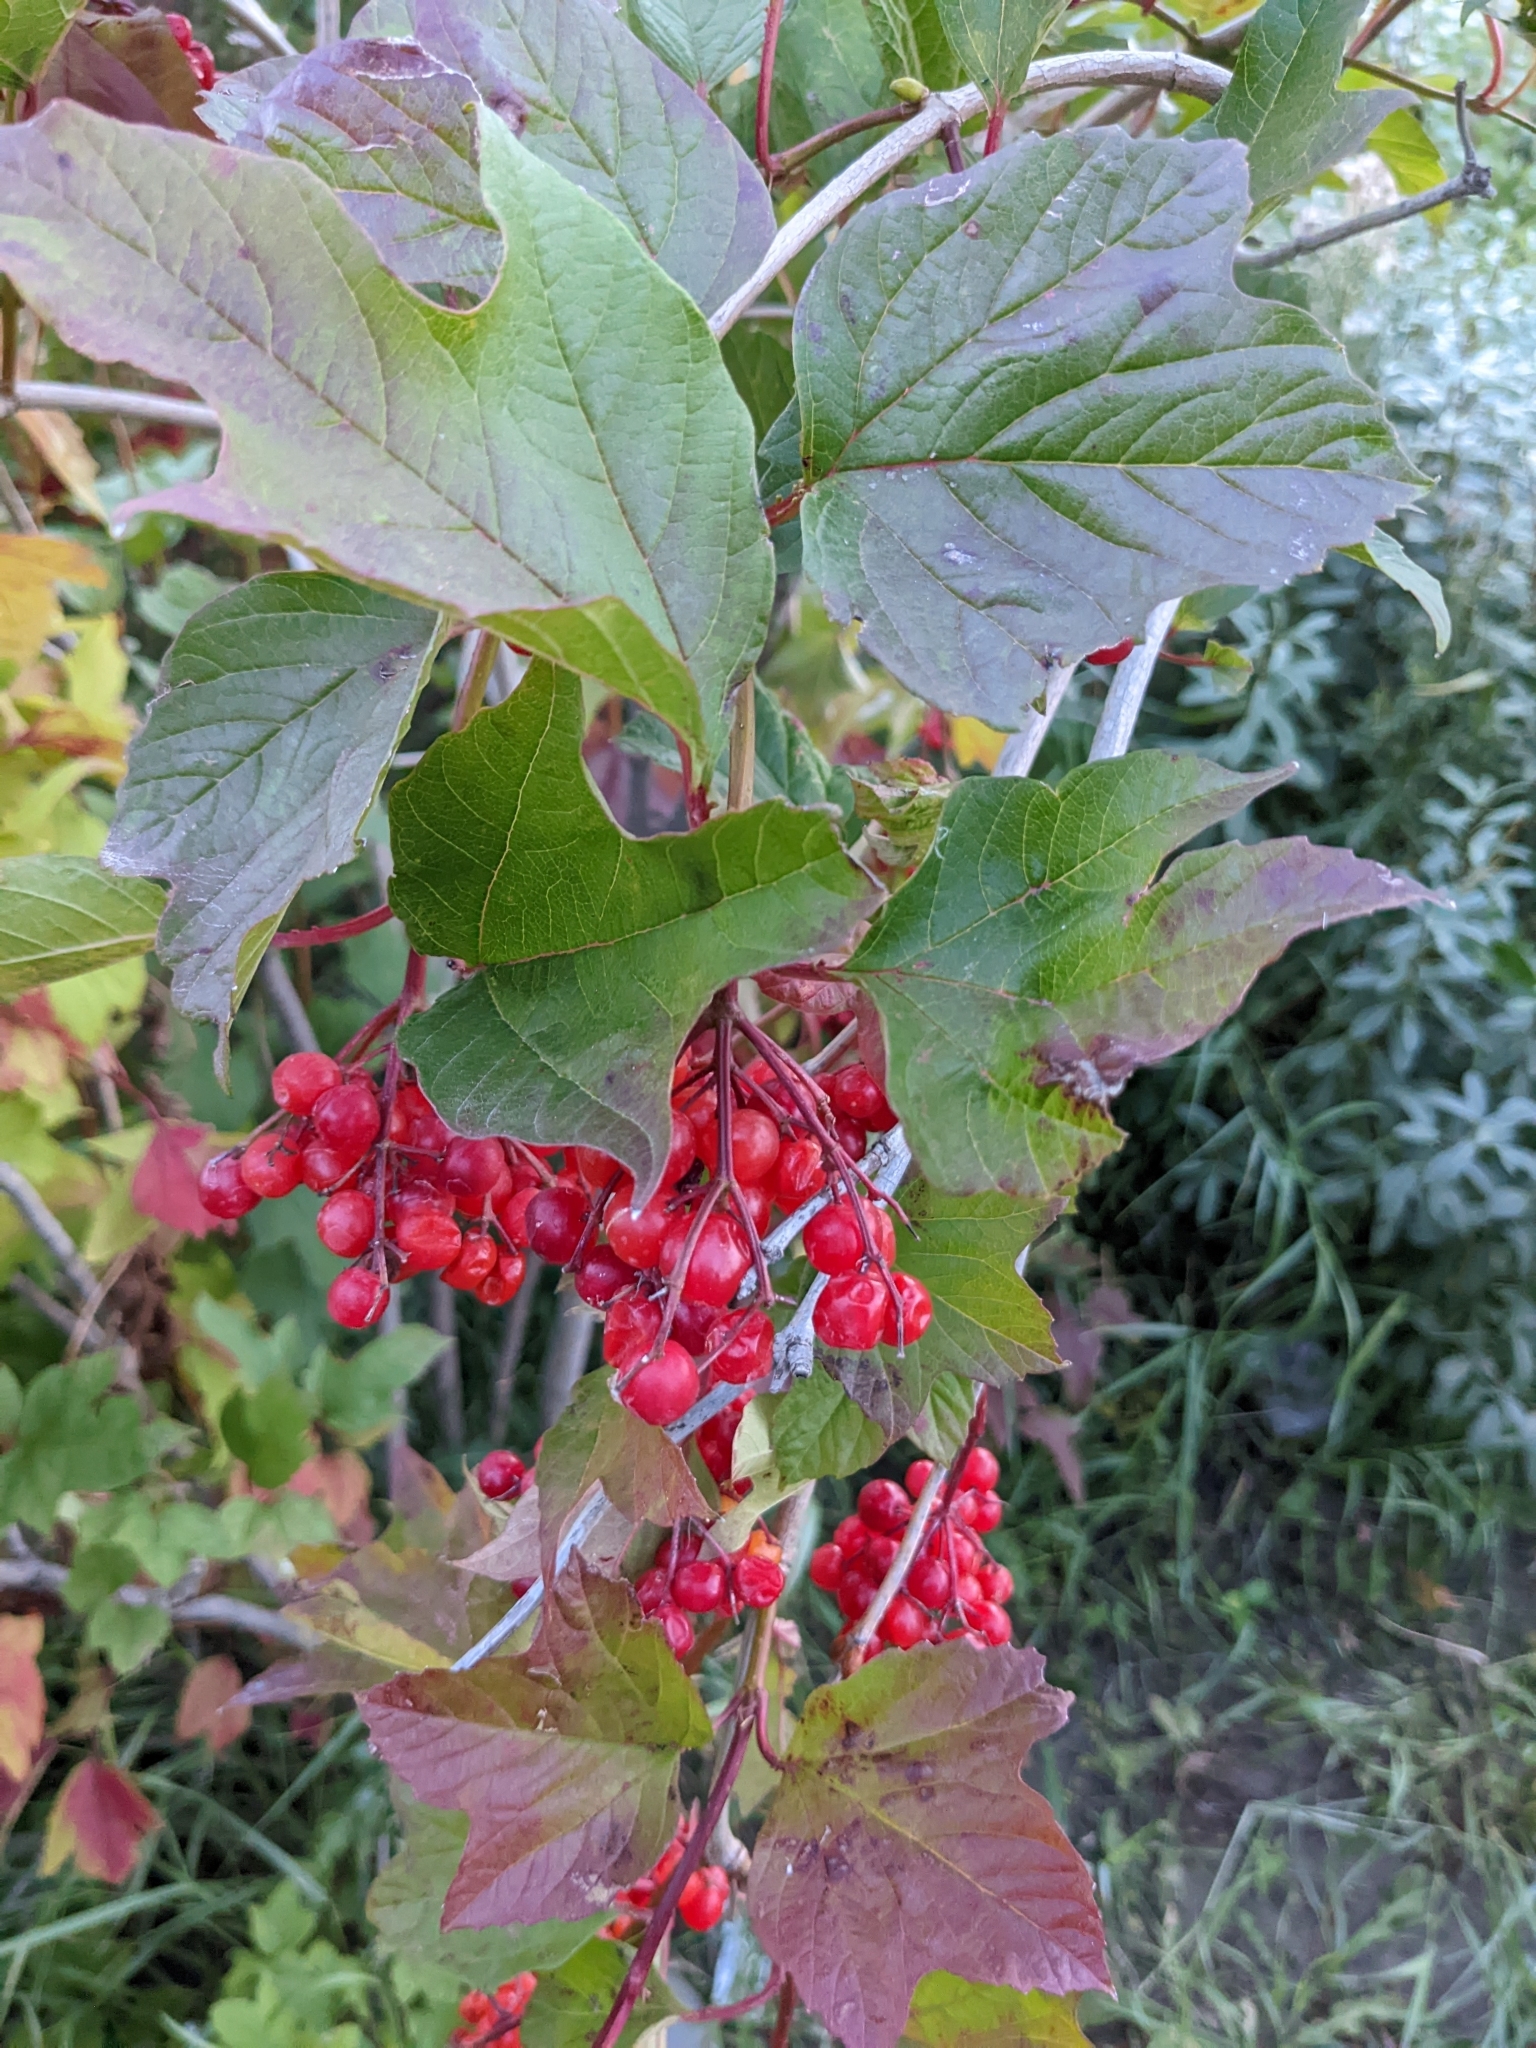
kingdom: Plantae
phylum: Tracheophyta
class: Magnoliopsida
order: Dipsacales
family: Viburnaceae
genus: Viburnum
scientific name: Viburnum opulus
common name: Guelder-rose
